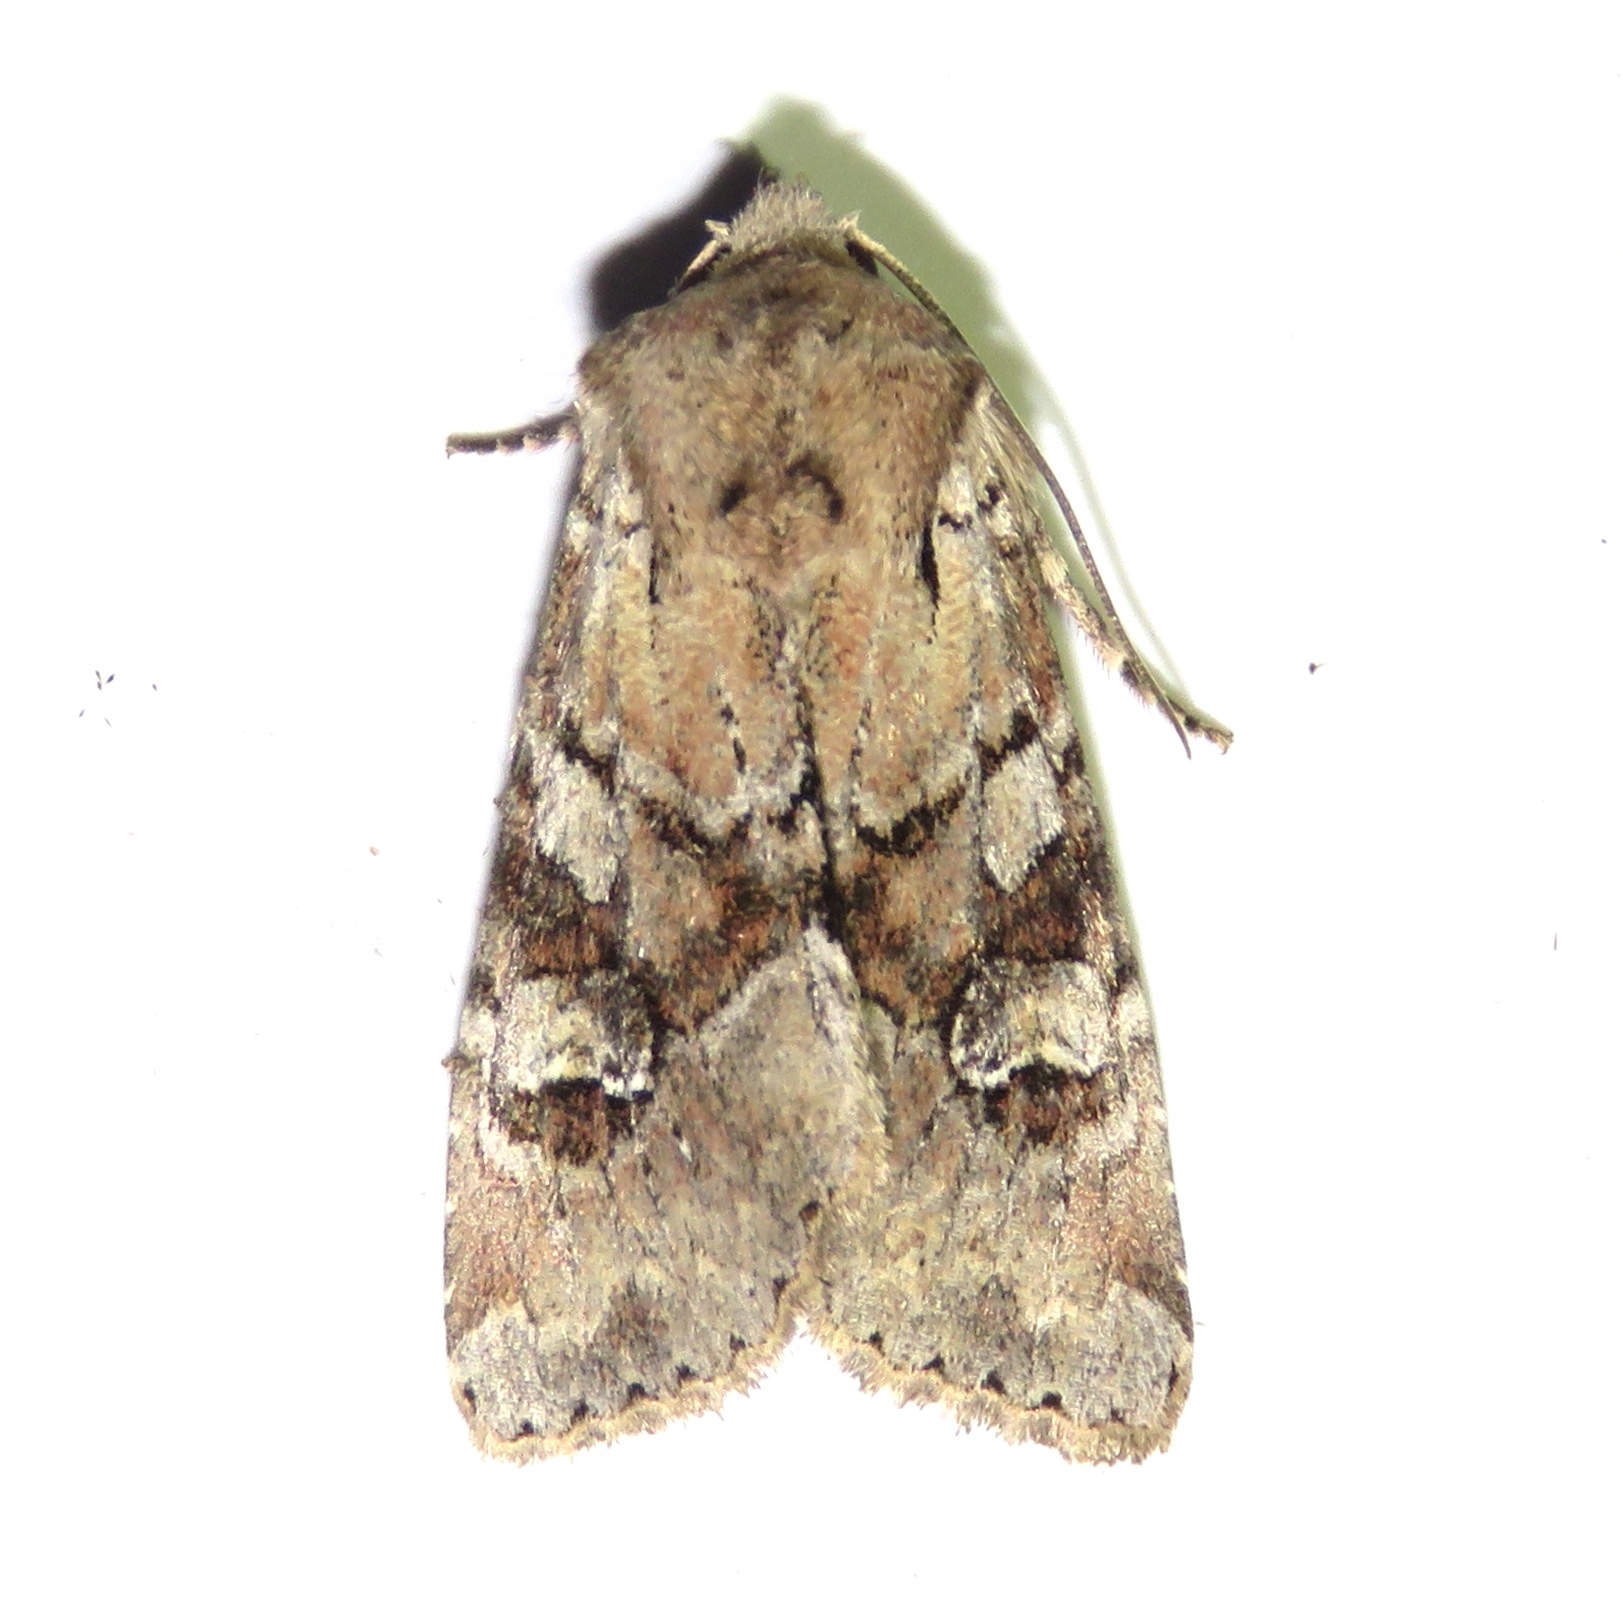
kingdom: Animalia
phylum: Arthropoda
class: Insecta
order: Lepidoptera
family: Noctuidae
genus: Apamea
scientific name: Apamea sordens
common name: Rustic shoulder-knot
